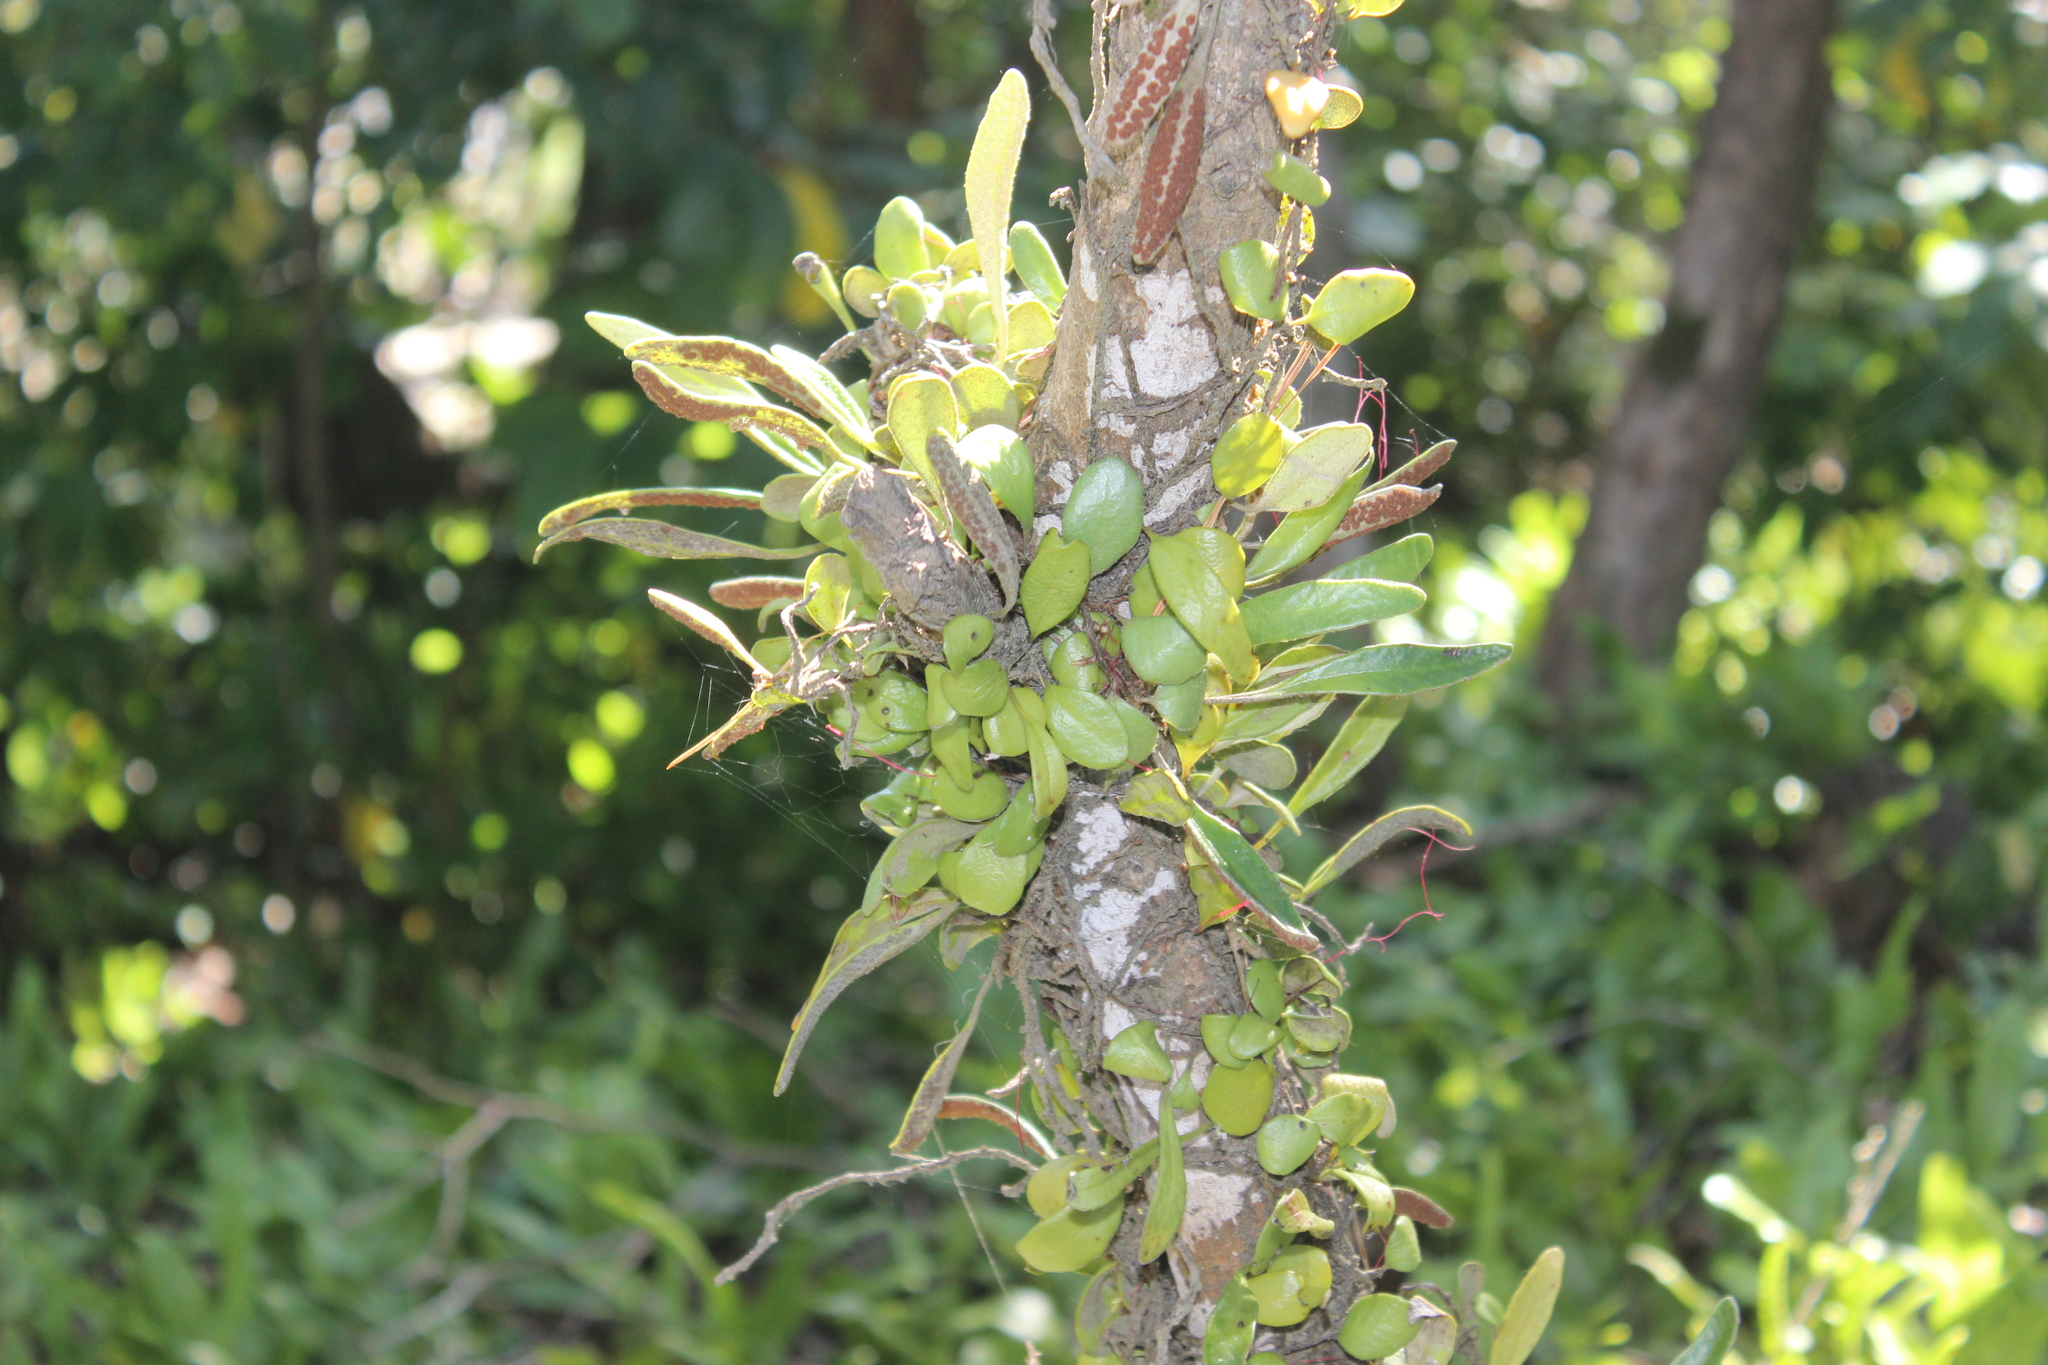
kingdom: Plantae
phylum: Tracheophyta
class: Polypodiopsida
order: Polypodiales
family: Polypodiaceae
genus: Pyrrosia
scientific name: Pyrrosia eleagnifolia
